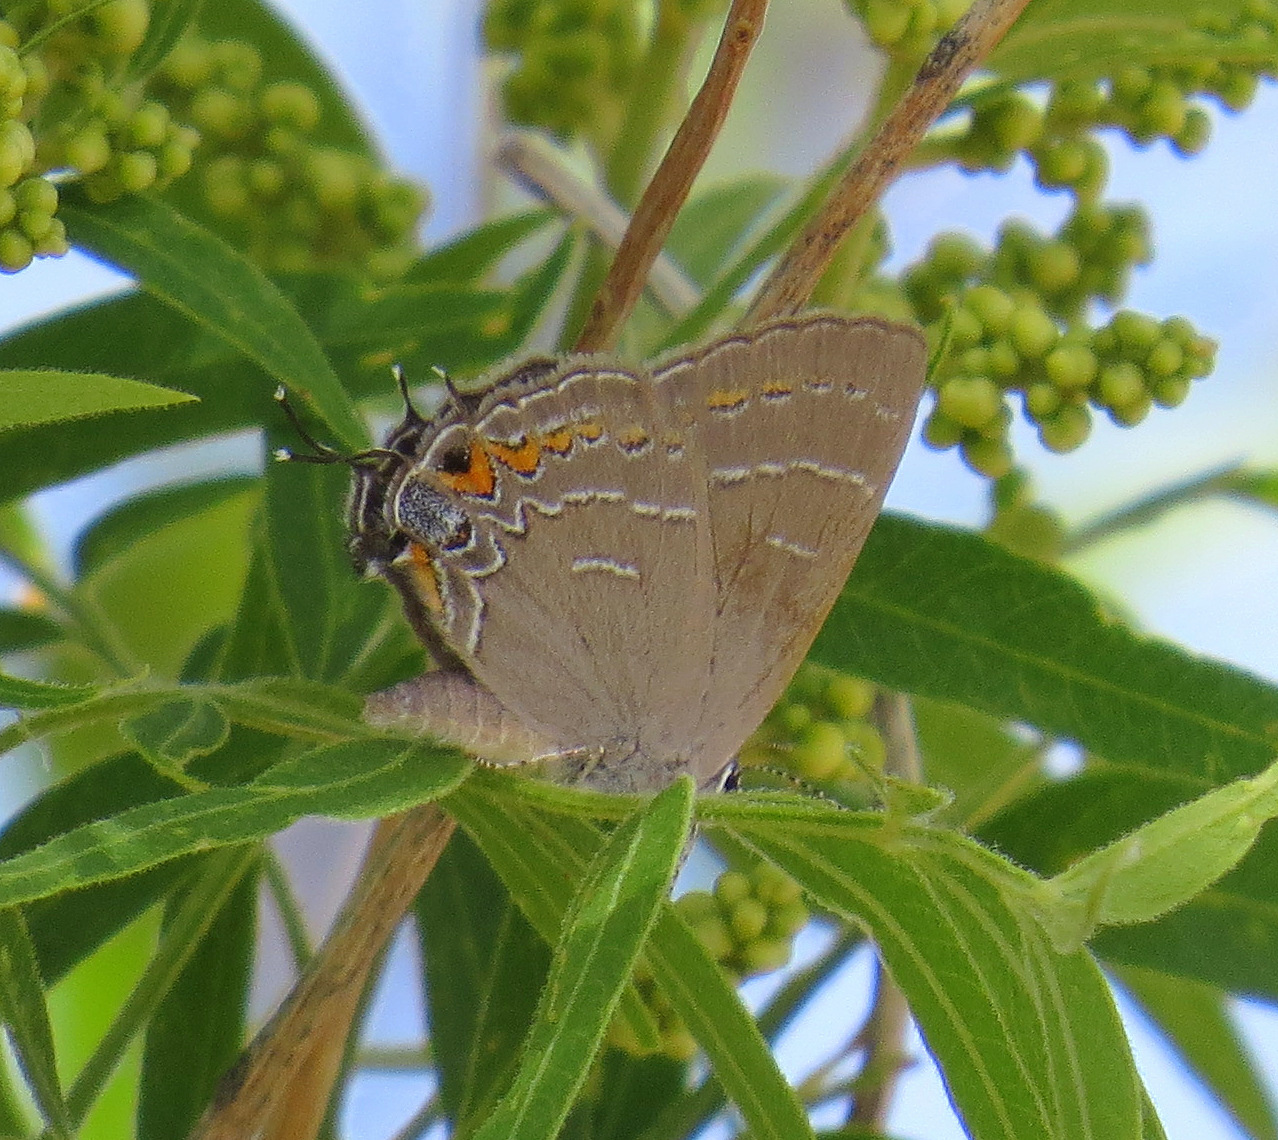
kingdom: Animalia
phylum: Arthropoda
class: Insecta
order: Lepidoptera
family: Lycaenidae
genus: Phaeostrymon
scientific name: Phaeostrymon alcestis
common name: Soapberry hairstreak
